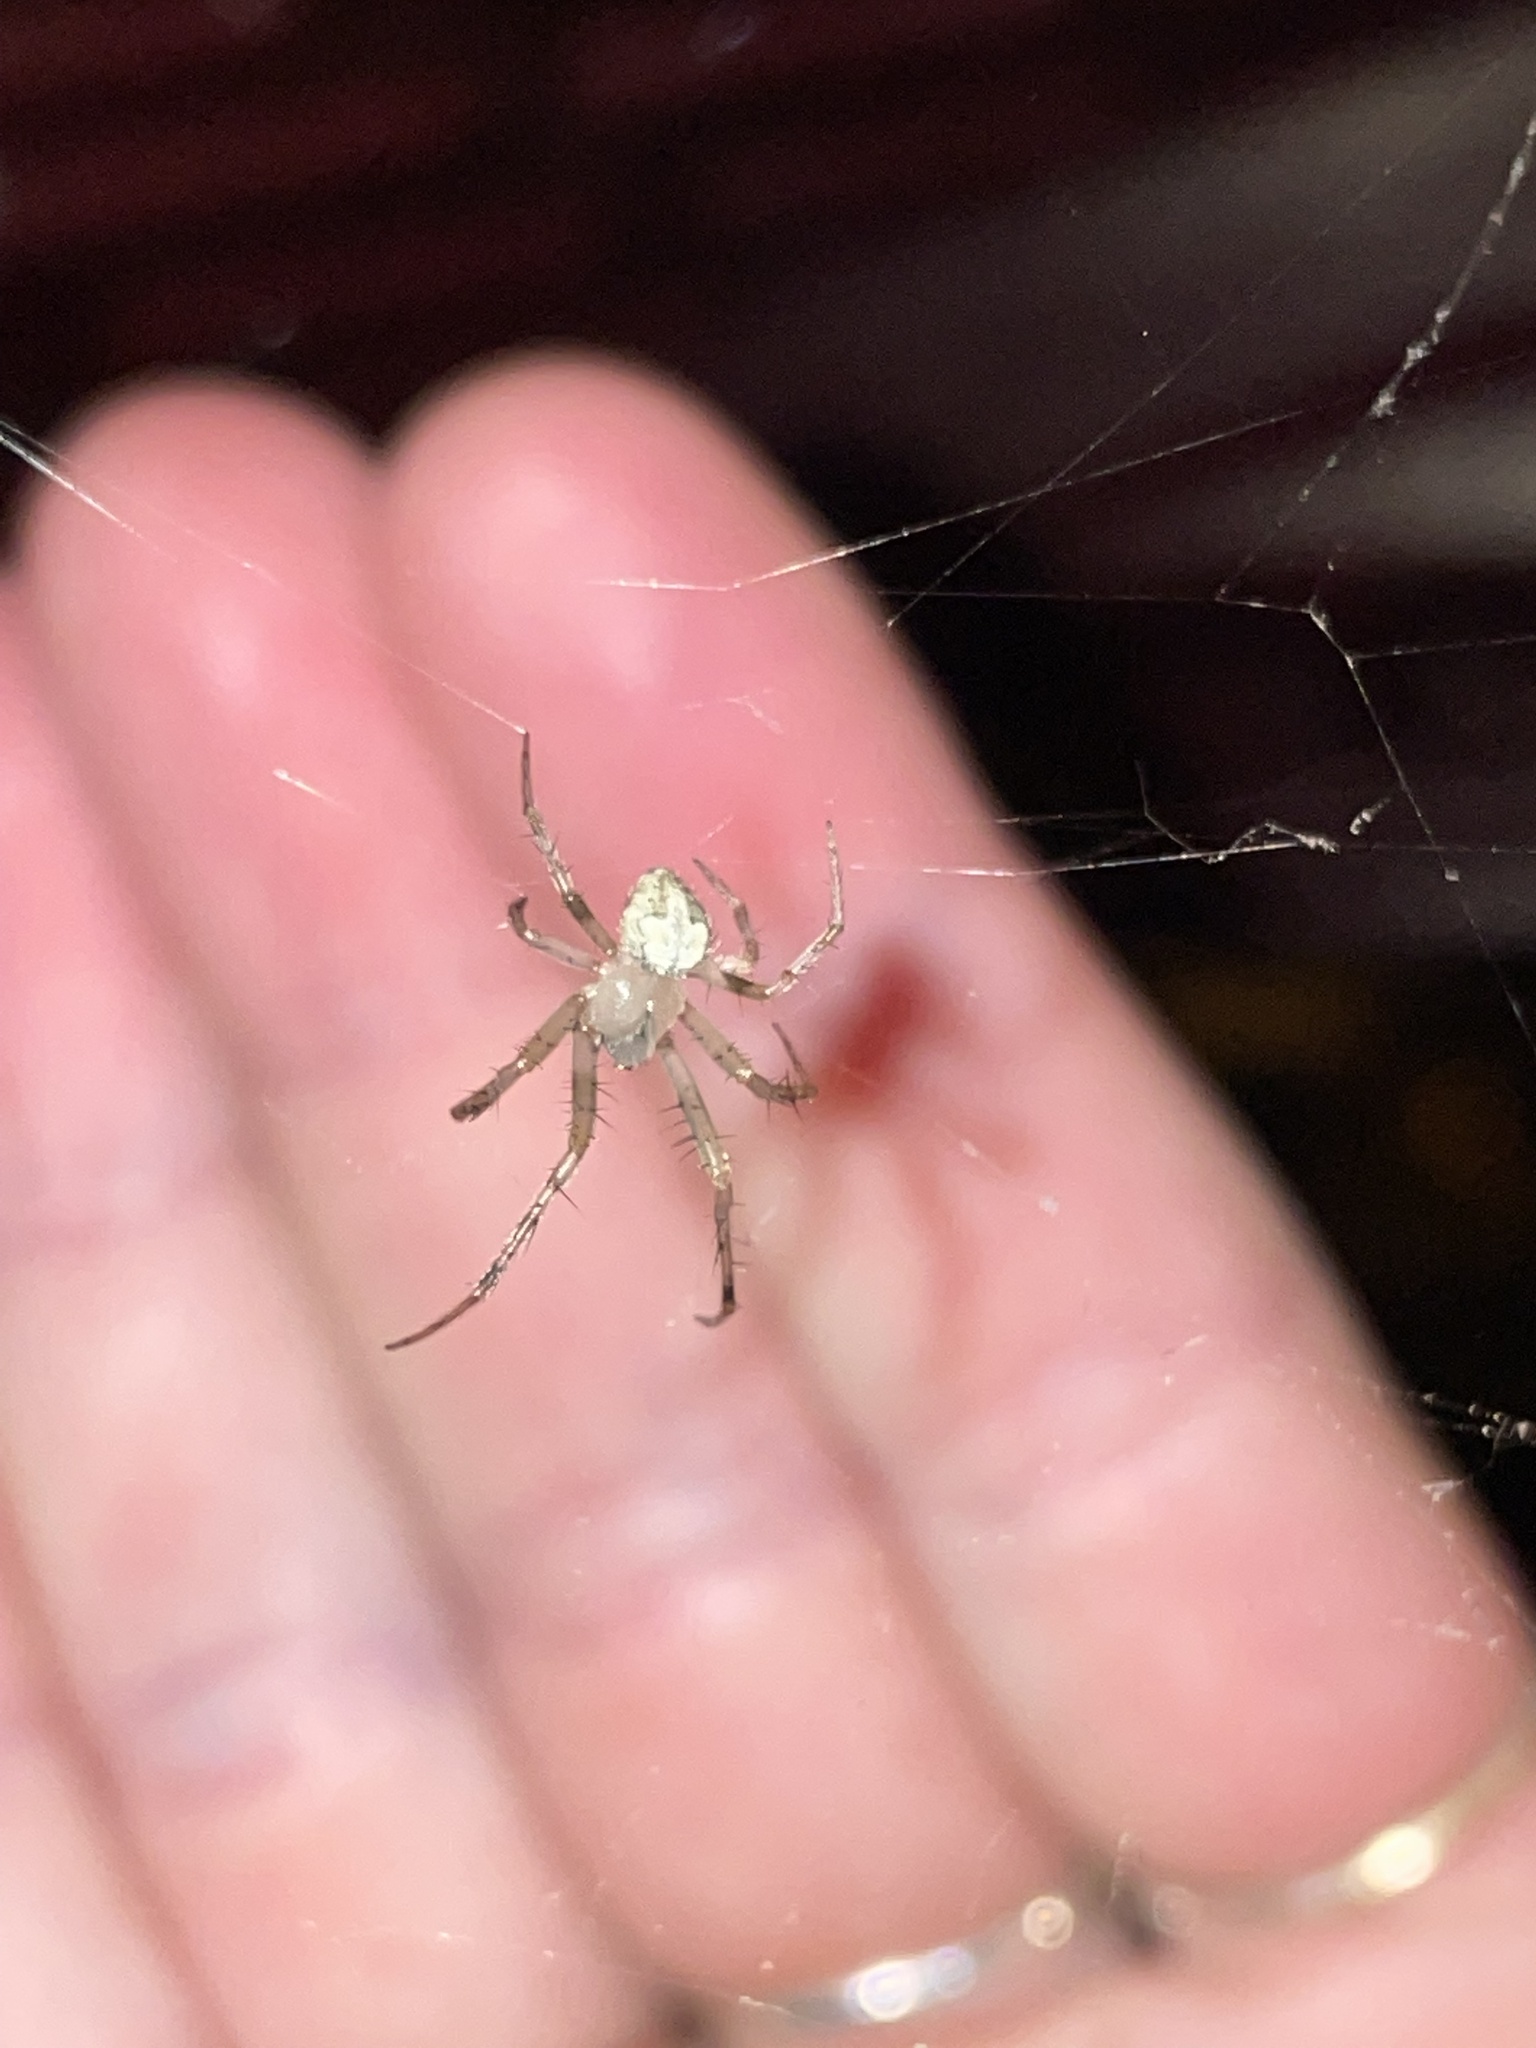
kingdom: Animalia
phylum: Arthropoda
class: Arachnida
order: Araneae
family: Araneidae
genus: Araneus
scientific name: Araneus pegnia
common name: Orb weavers
